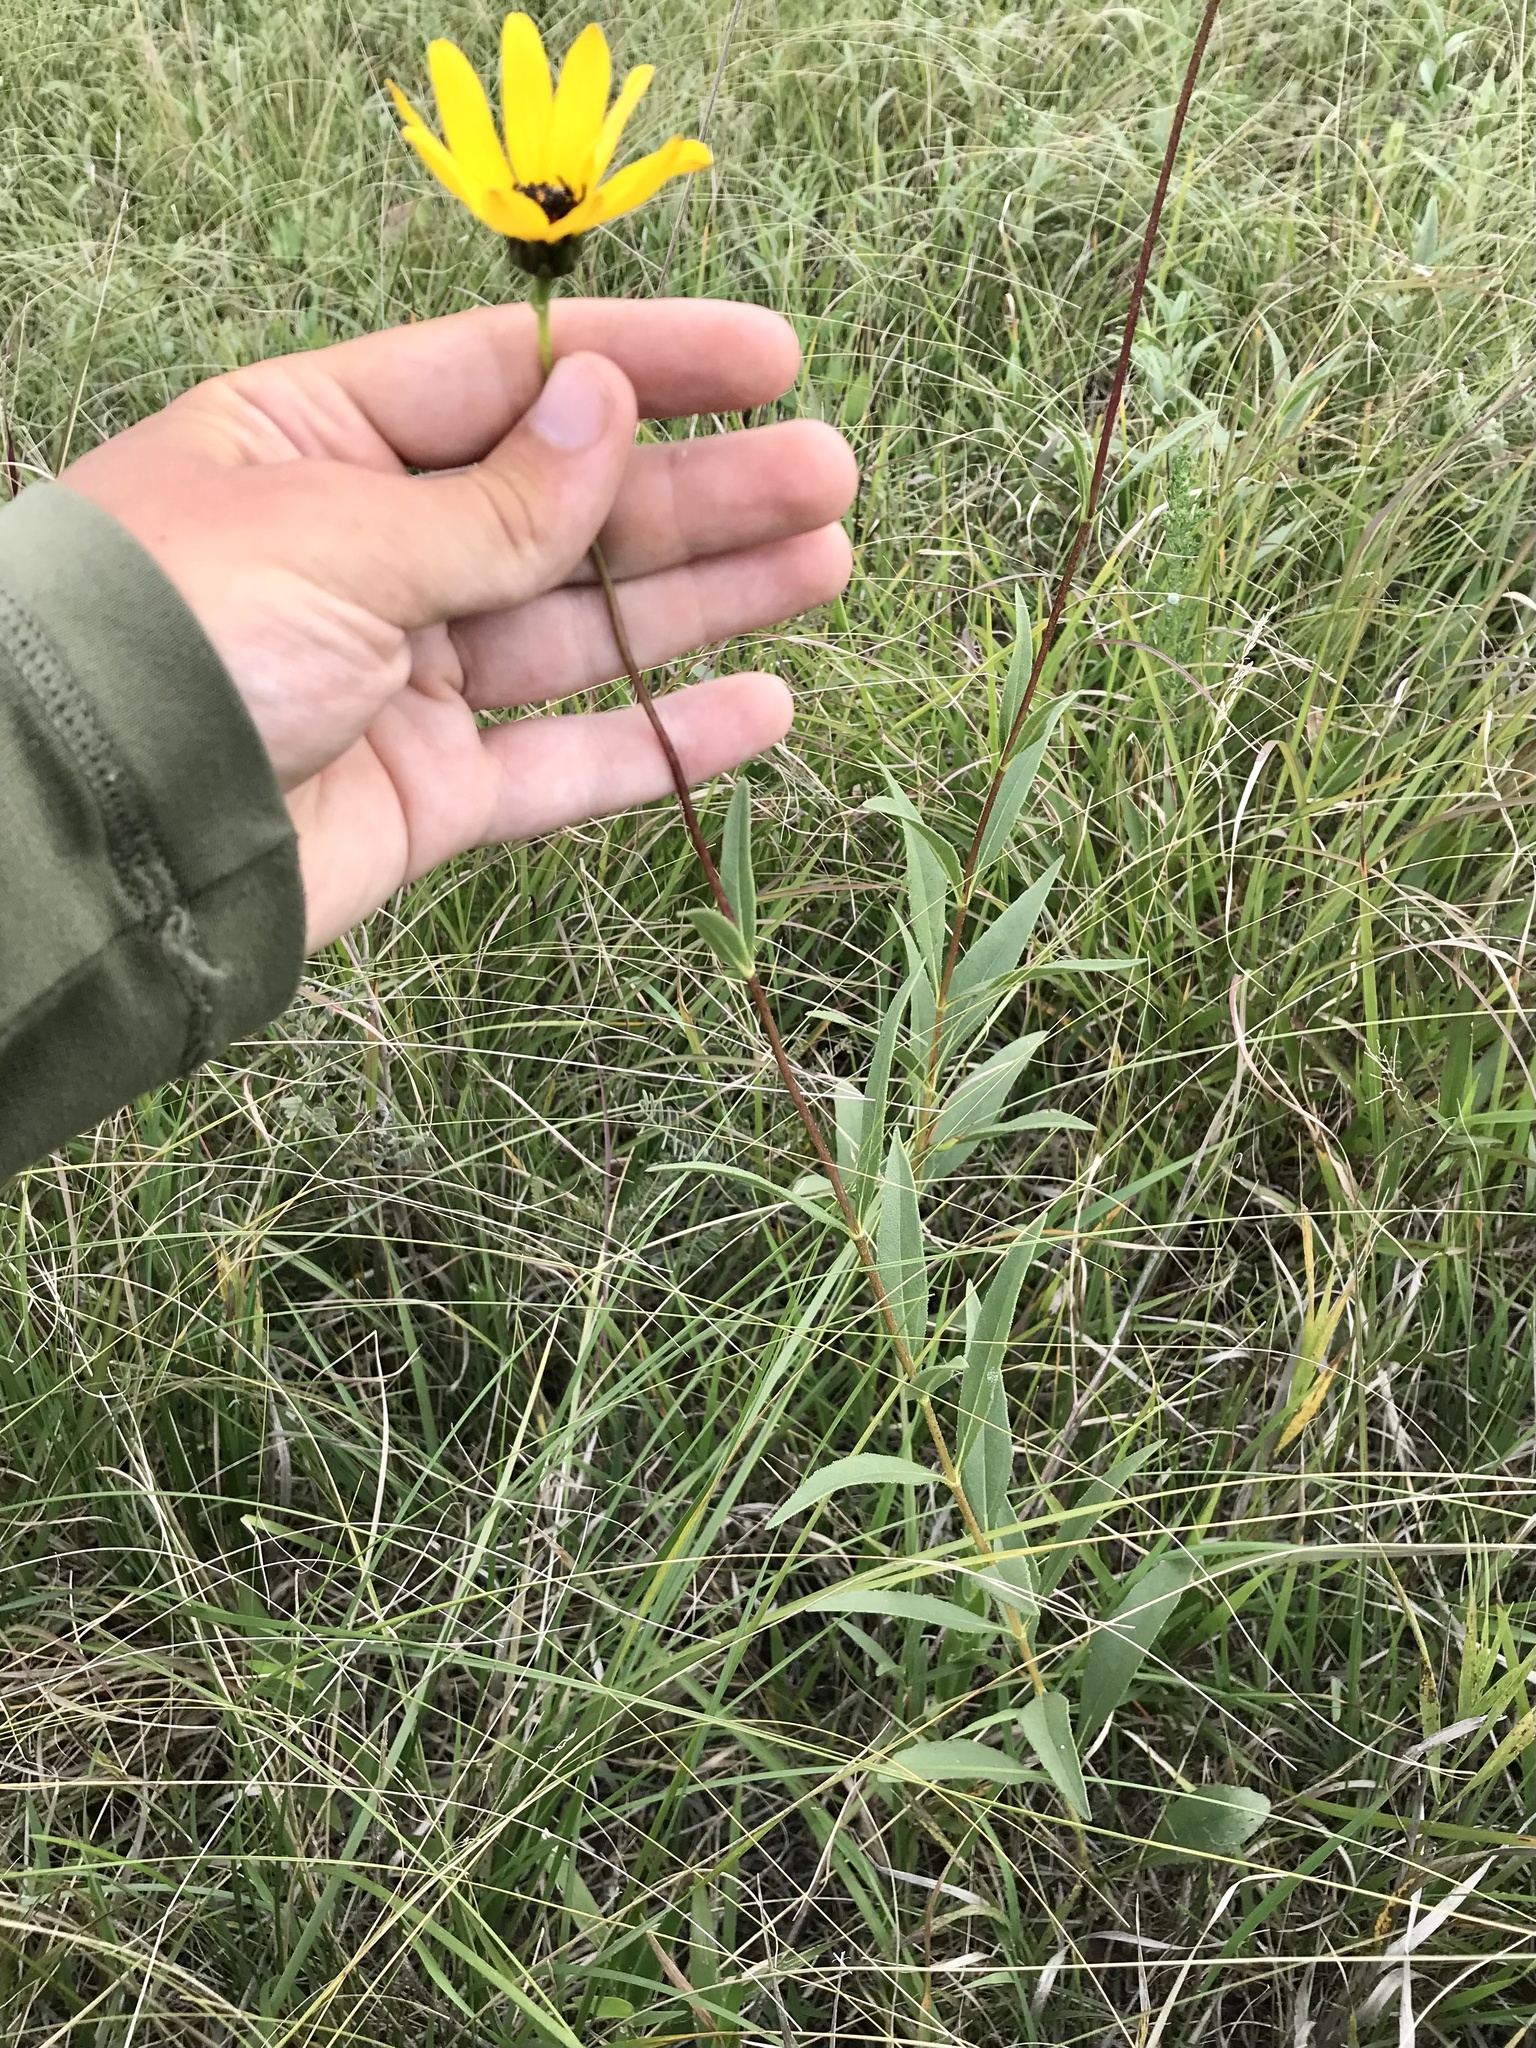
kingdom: Plantae
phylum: Tracheophyta
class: Magnoliopsida
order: Asterales
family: Asteraceae
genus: Helianthus
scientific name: Helianthus pauciflorus
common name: Stiff sunflower
